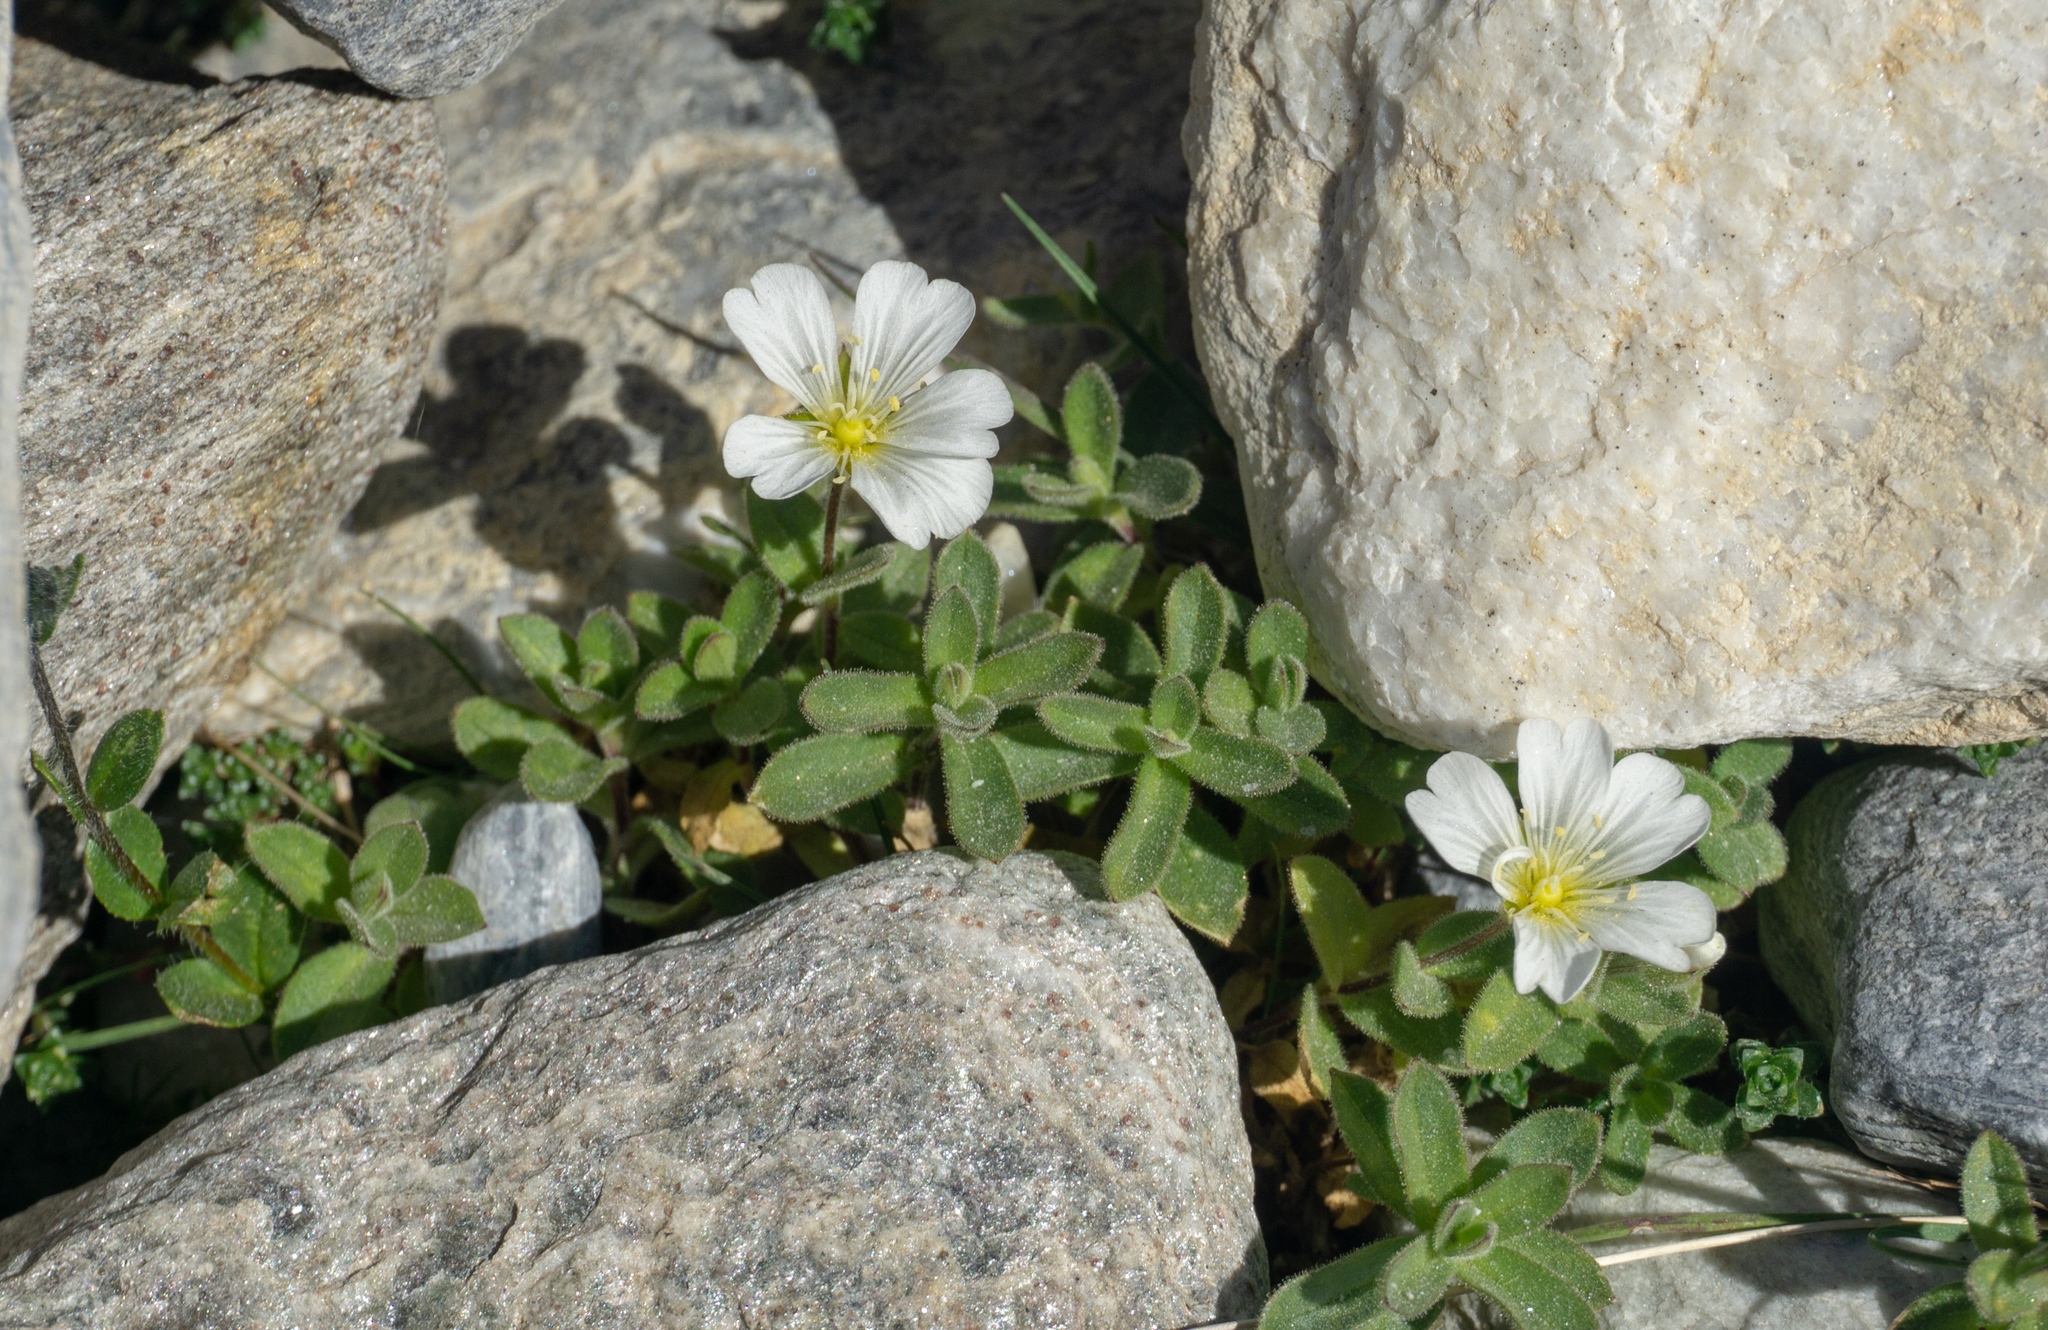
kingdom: Plantae
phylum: Tracheophyta
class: Magnoliopsida
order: Caryophyllales
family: Caryophyllaceae
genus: Cerastium
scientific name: Cerastium latifolium
